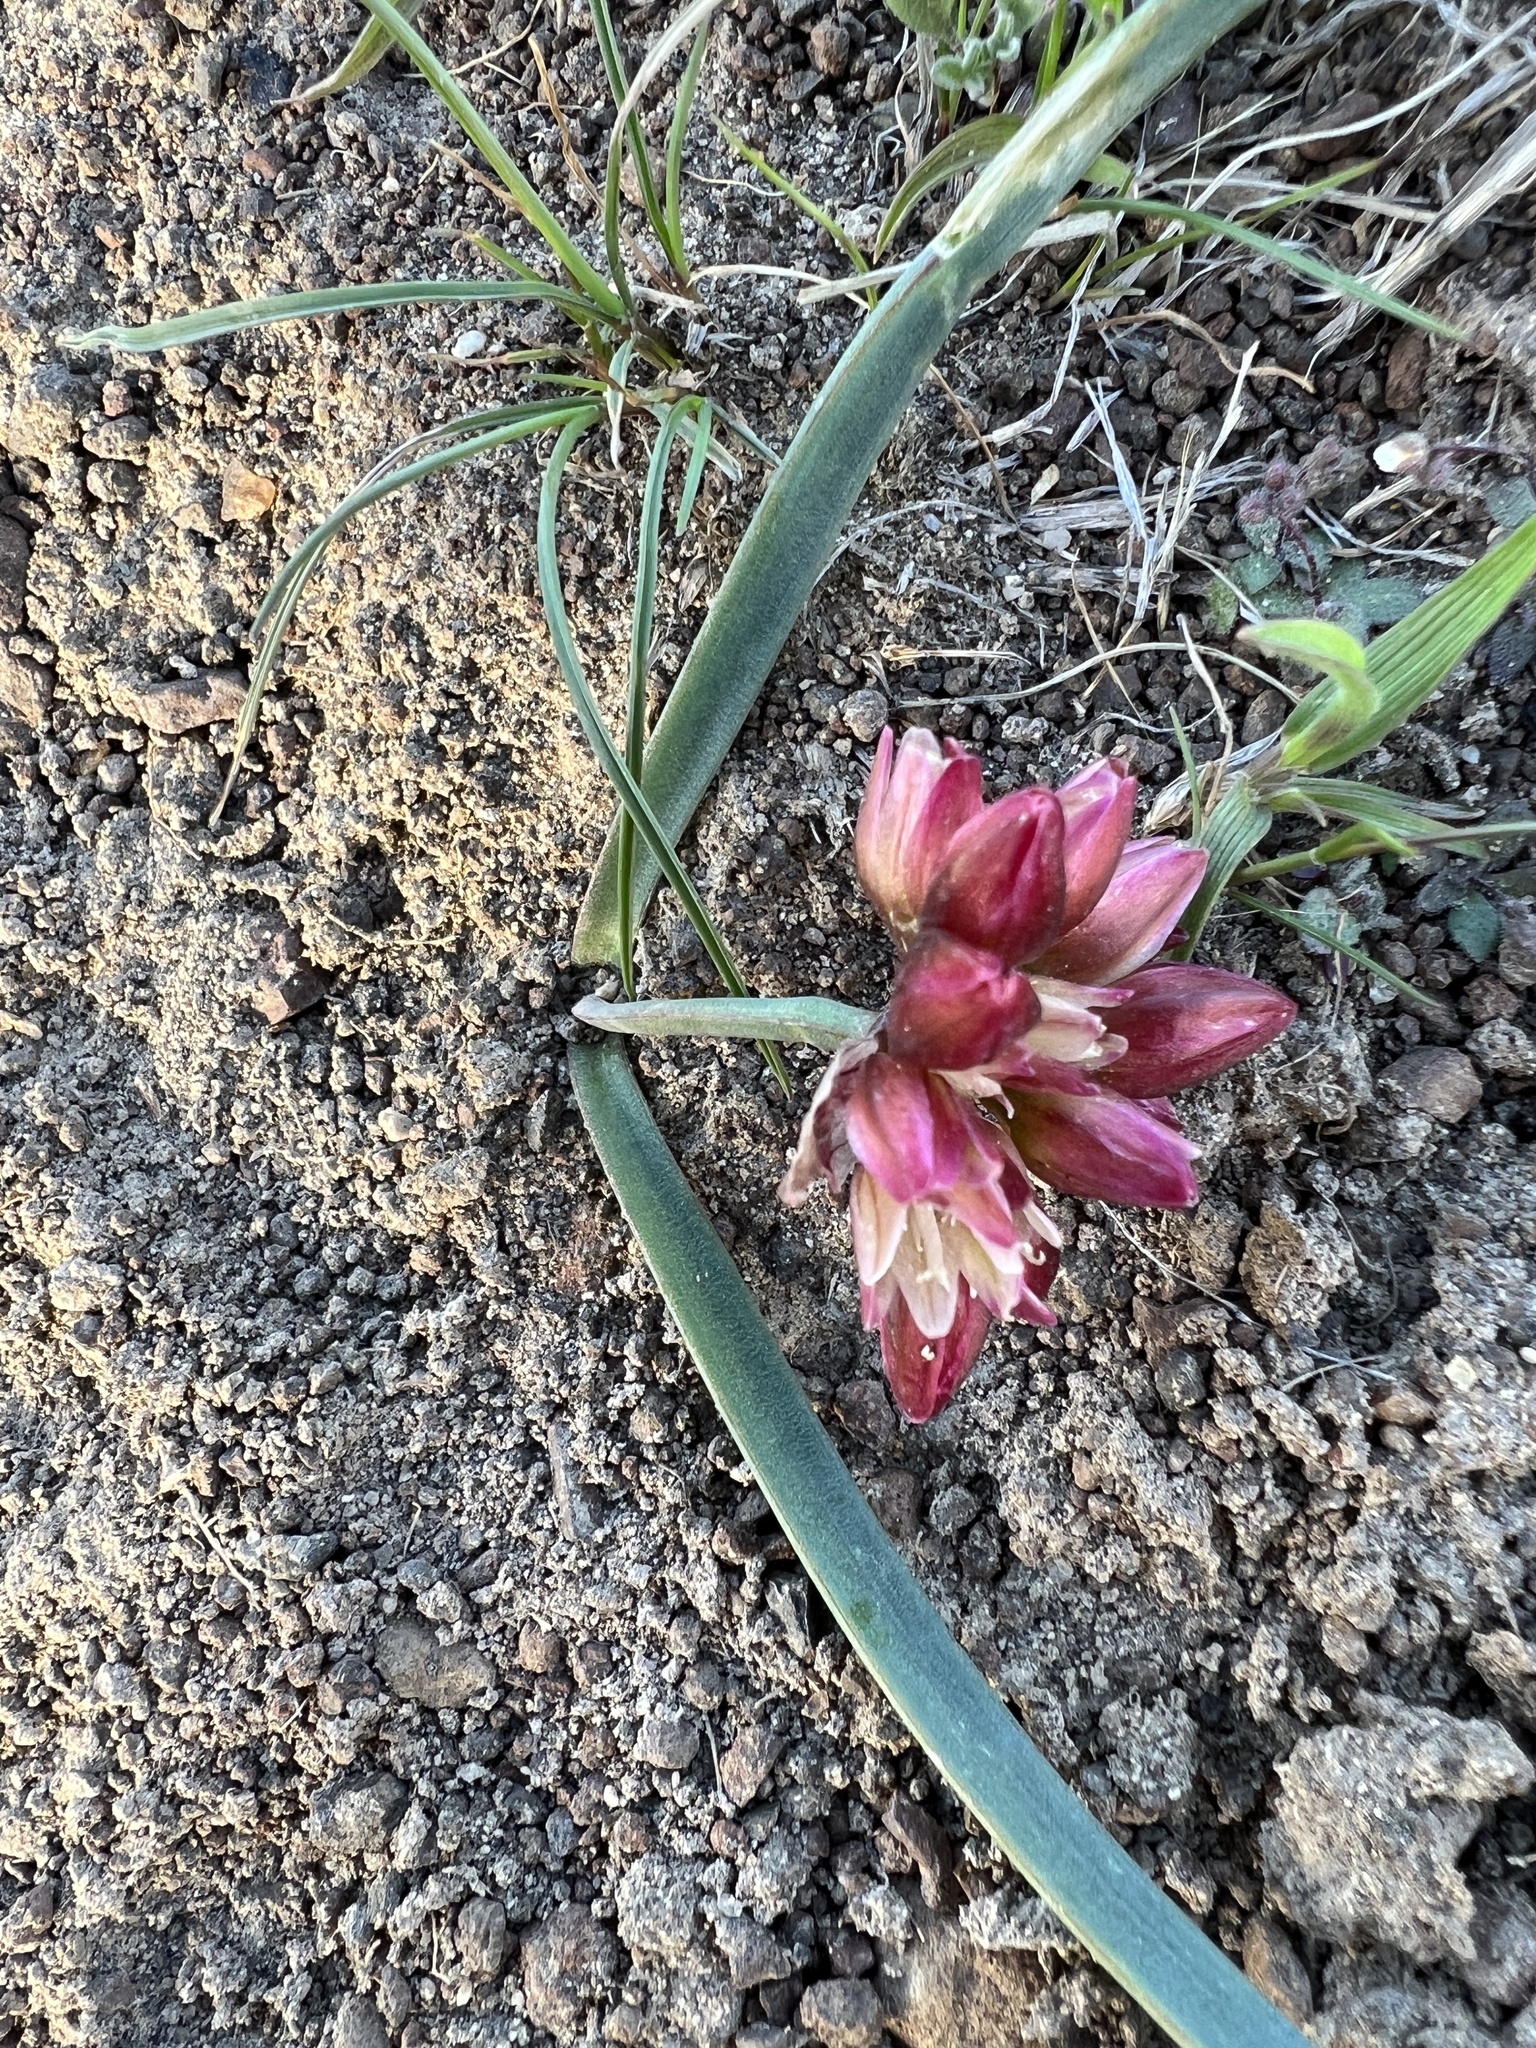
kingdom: Plantae
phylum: Tracheophyta
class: Liliopsida
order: Asparagales
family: Amaryllidaceae
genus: Allium
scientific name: Allium scilloides
